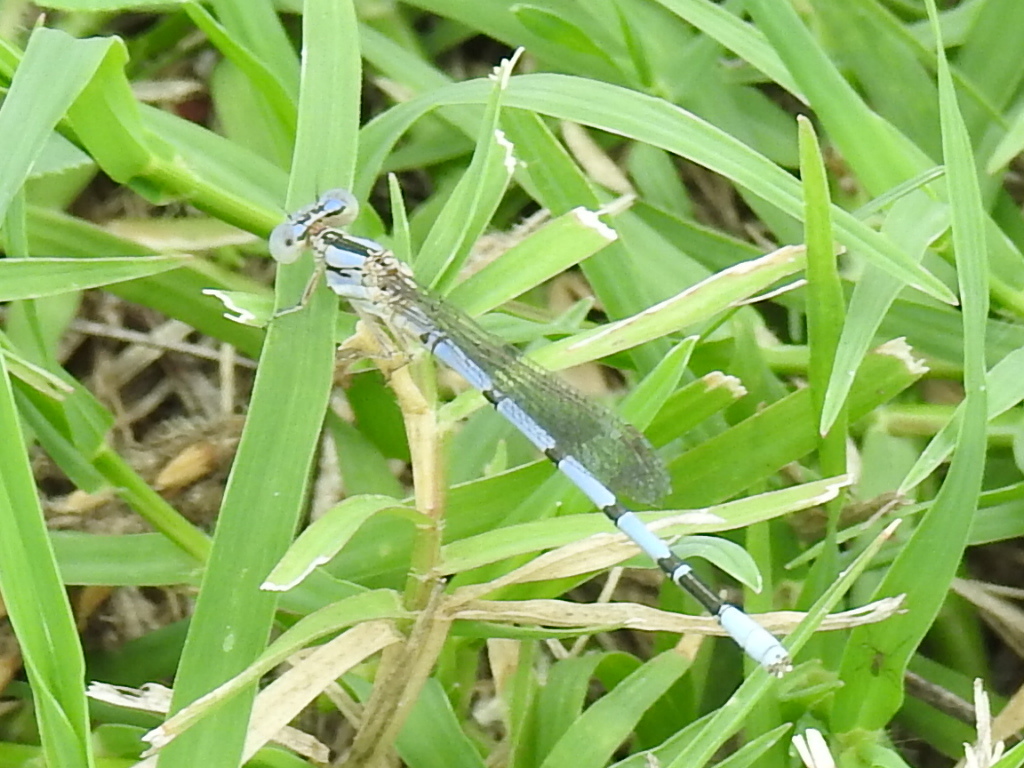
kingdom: Animalia
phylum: Arthropoda
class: Insecta
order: Odonata
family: Coenagrionidae
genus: Argia
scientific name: Argia nahuana
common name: Aztec dancer
